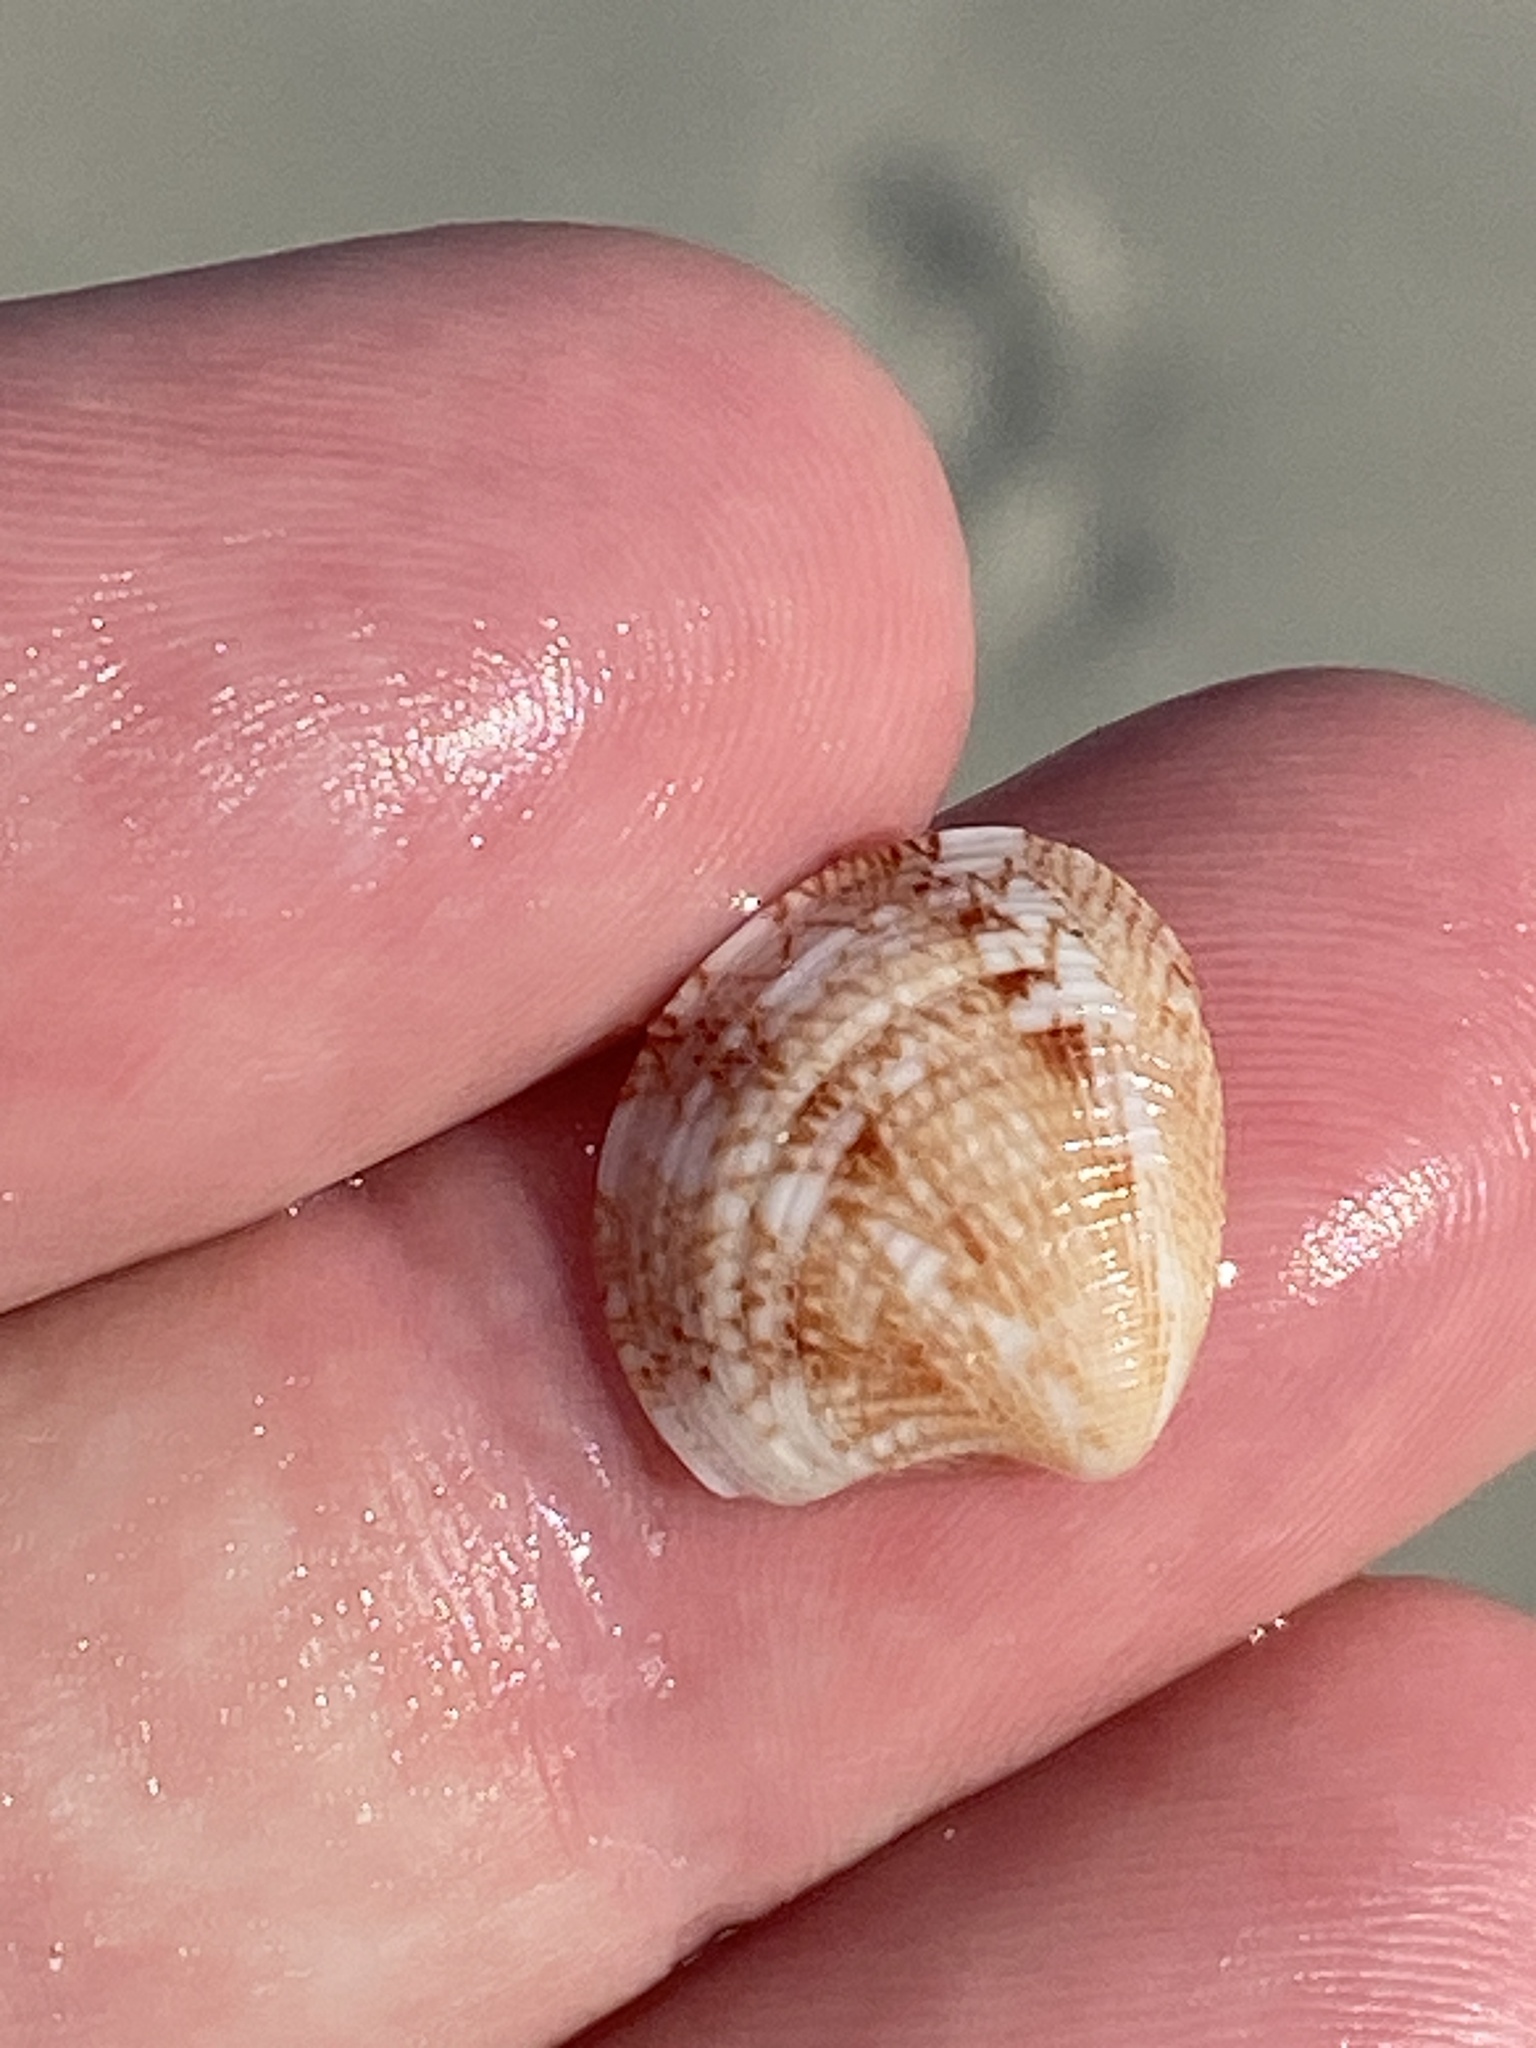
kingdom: Animalia
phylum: Mollusca
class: Bivalvia
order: Venerida
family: Veneridae
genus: Chamelea
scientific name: Chamelea gallina
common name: Chicken venus
